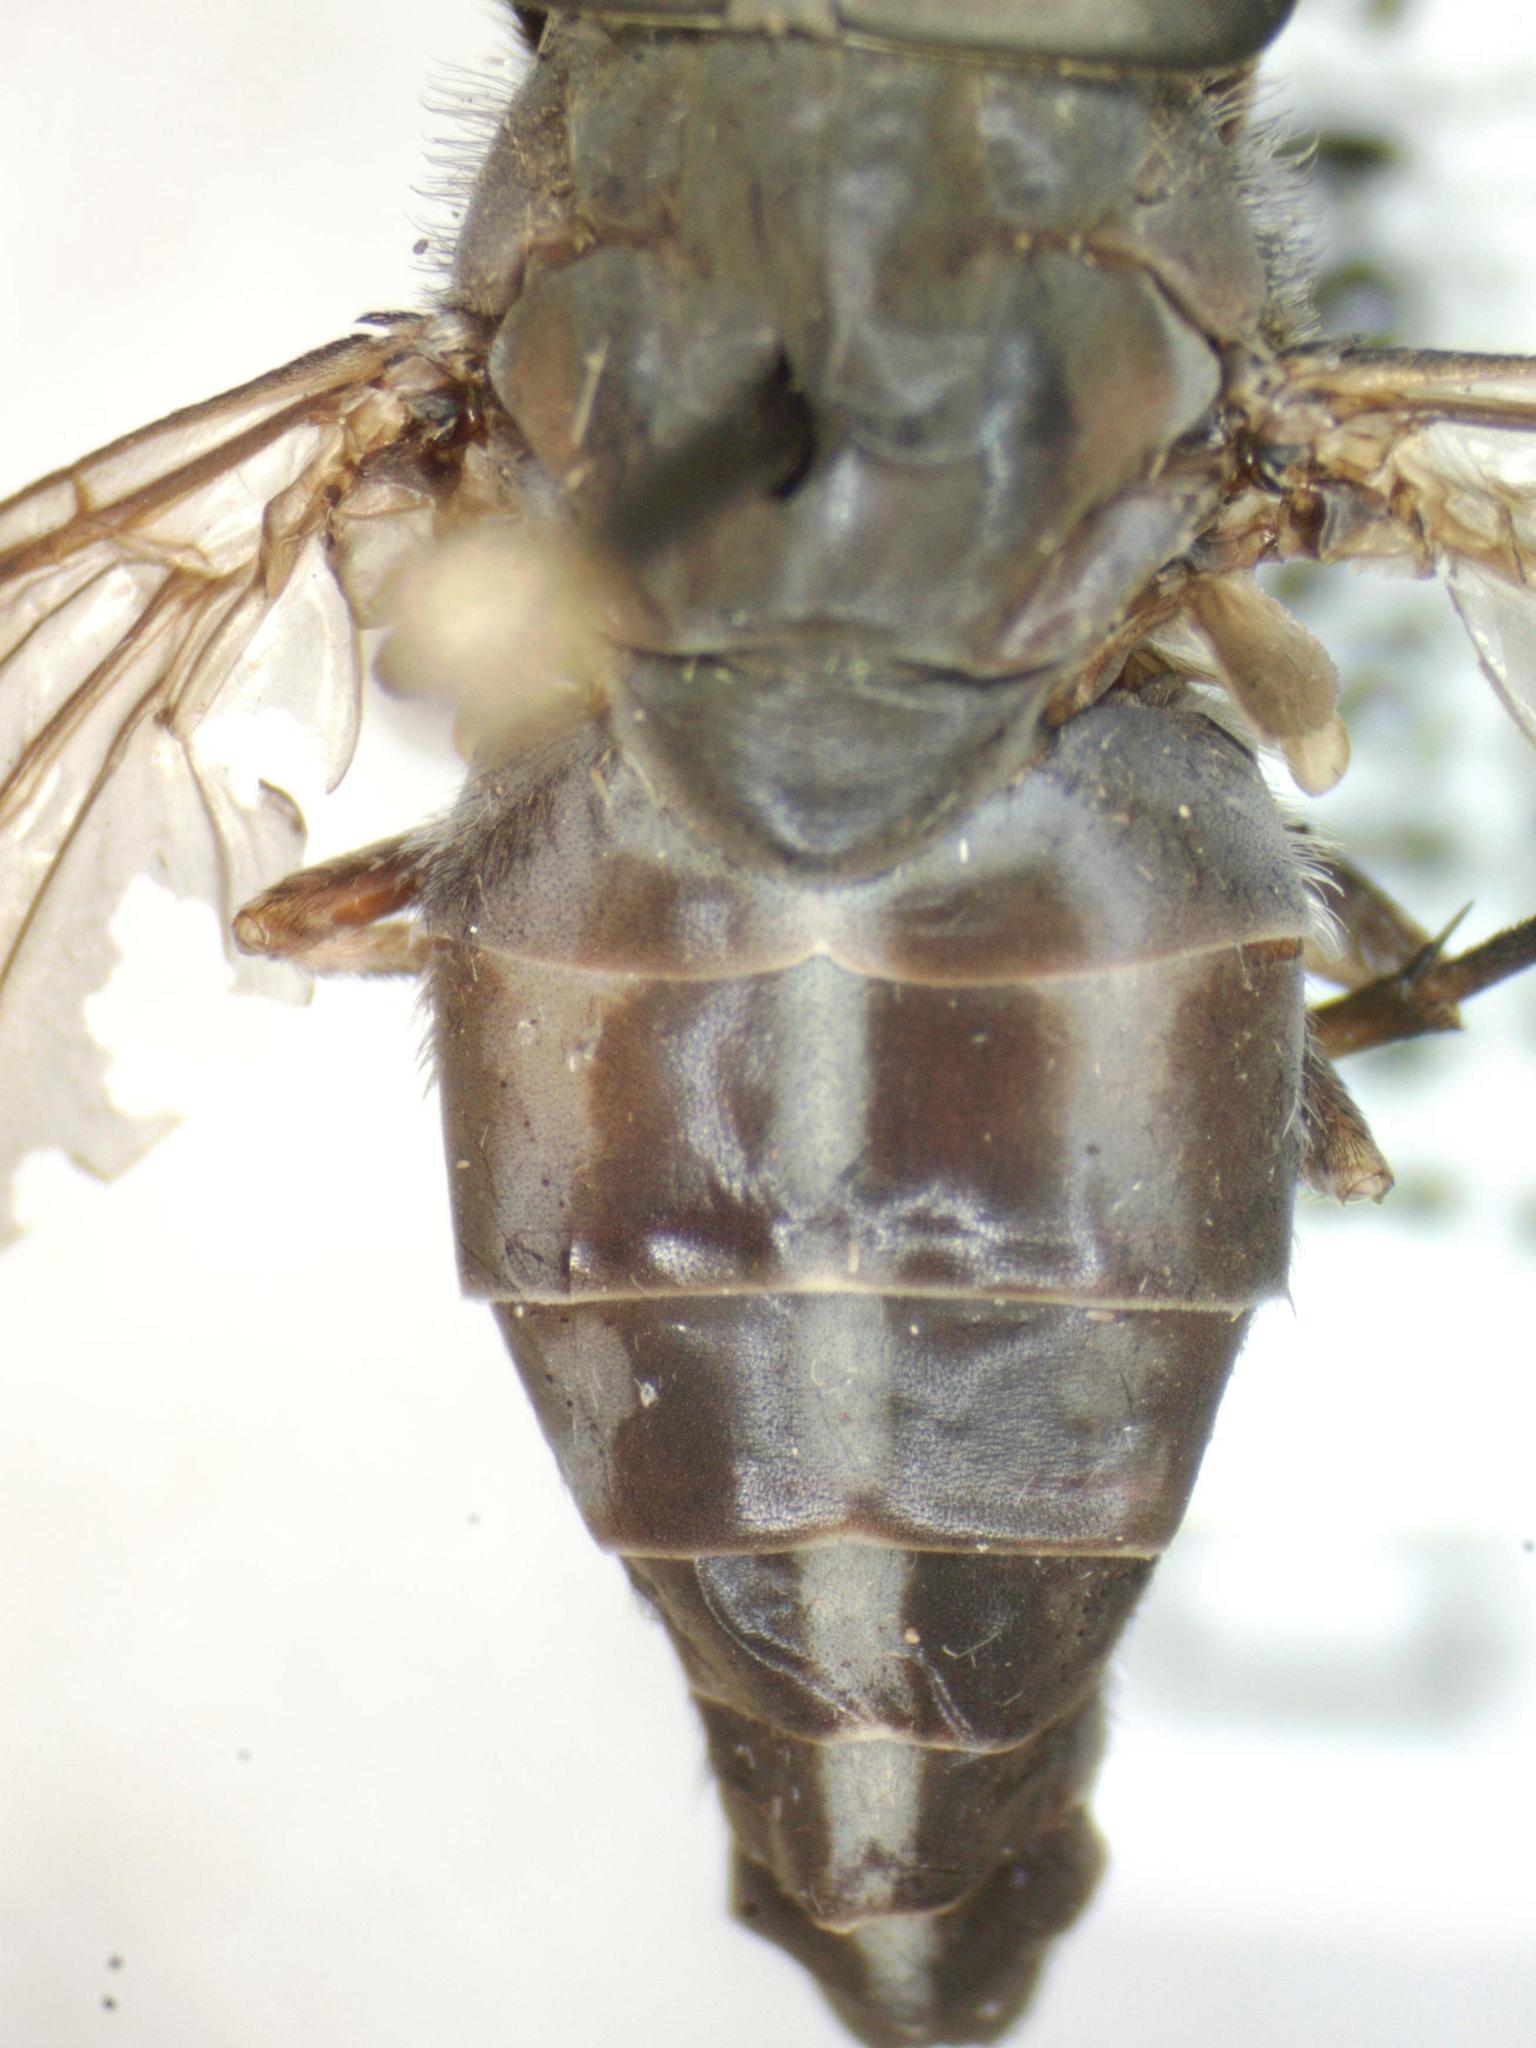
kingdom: Animalia
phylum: Arthropoda
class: Insecta
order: Diptera
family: Tabanidae
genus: Tabanus
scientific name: Tabanus colombensis
